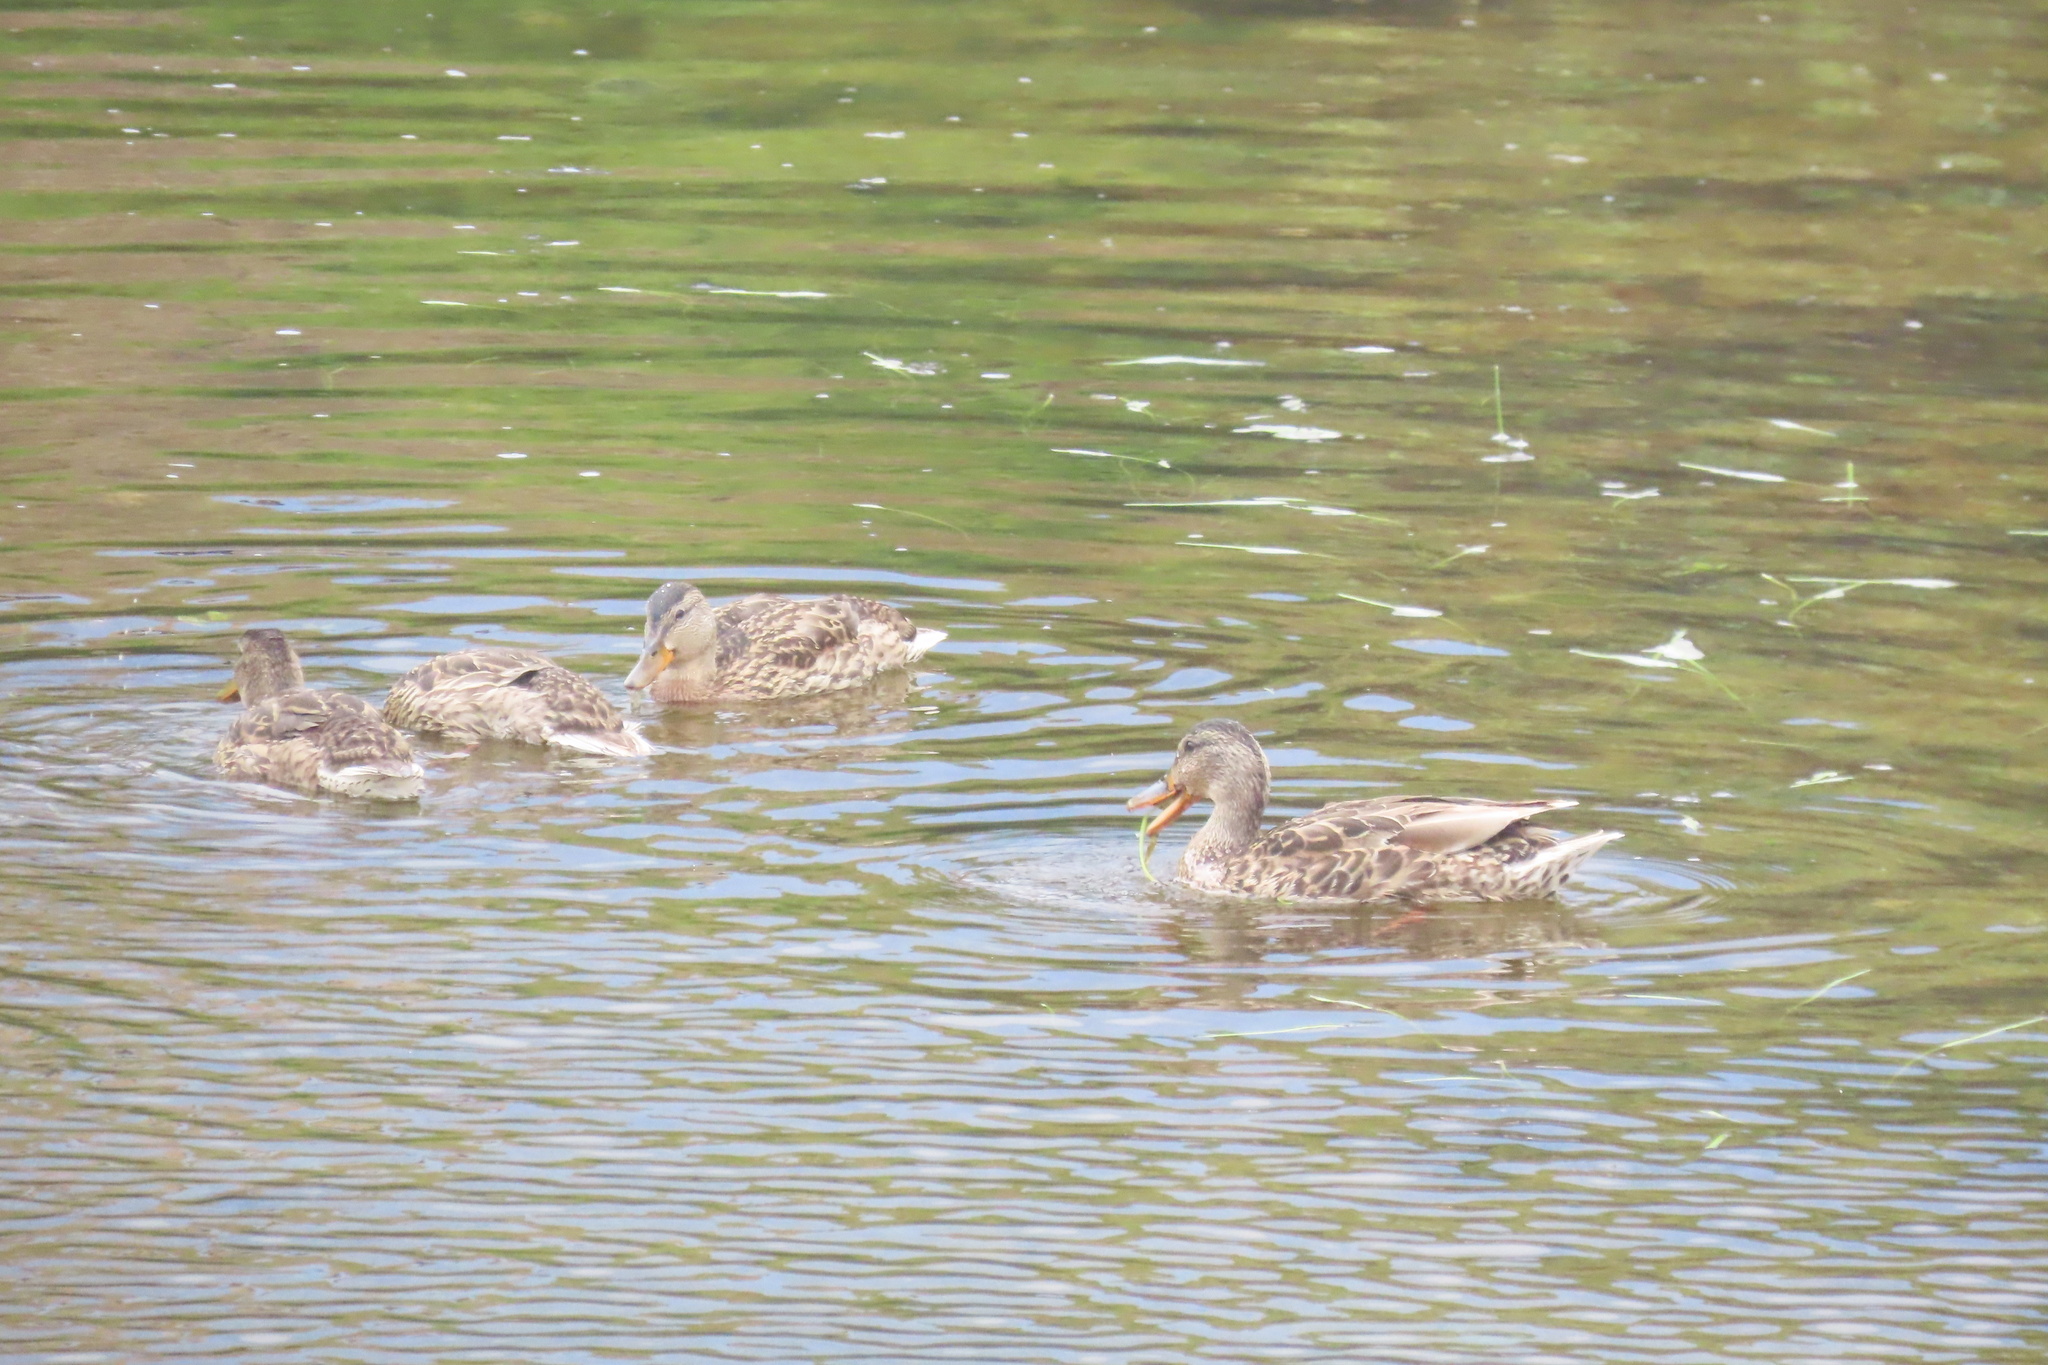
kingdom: Animalia
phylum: Chordata
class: Aves
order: Anseriformes
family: Anatidae
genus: Anas
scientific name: Anas platyrhynchos
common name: Mallard
